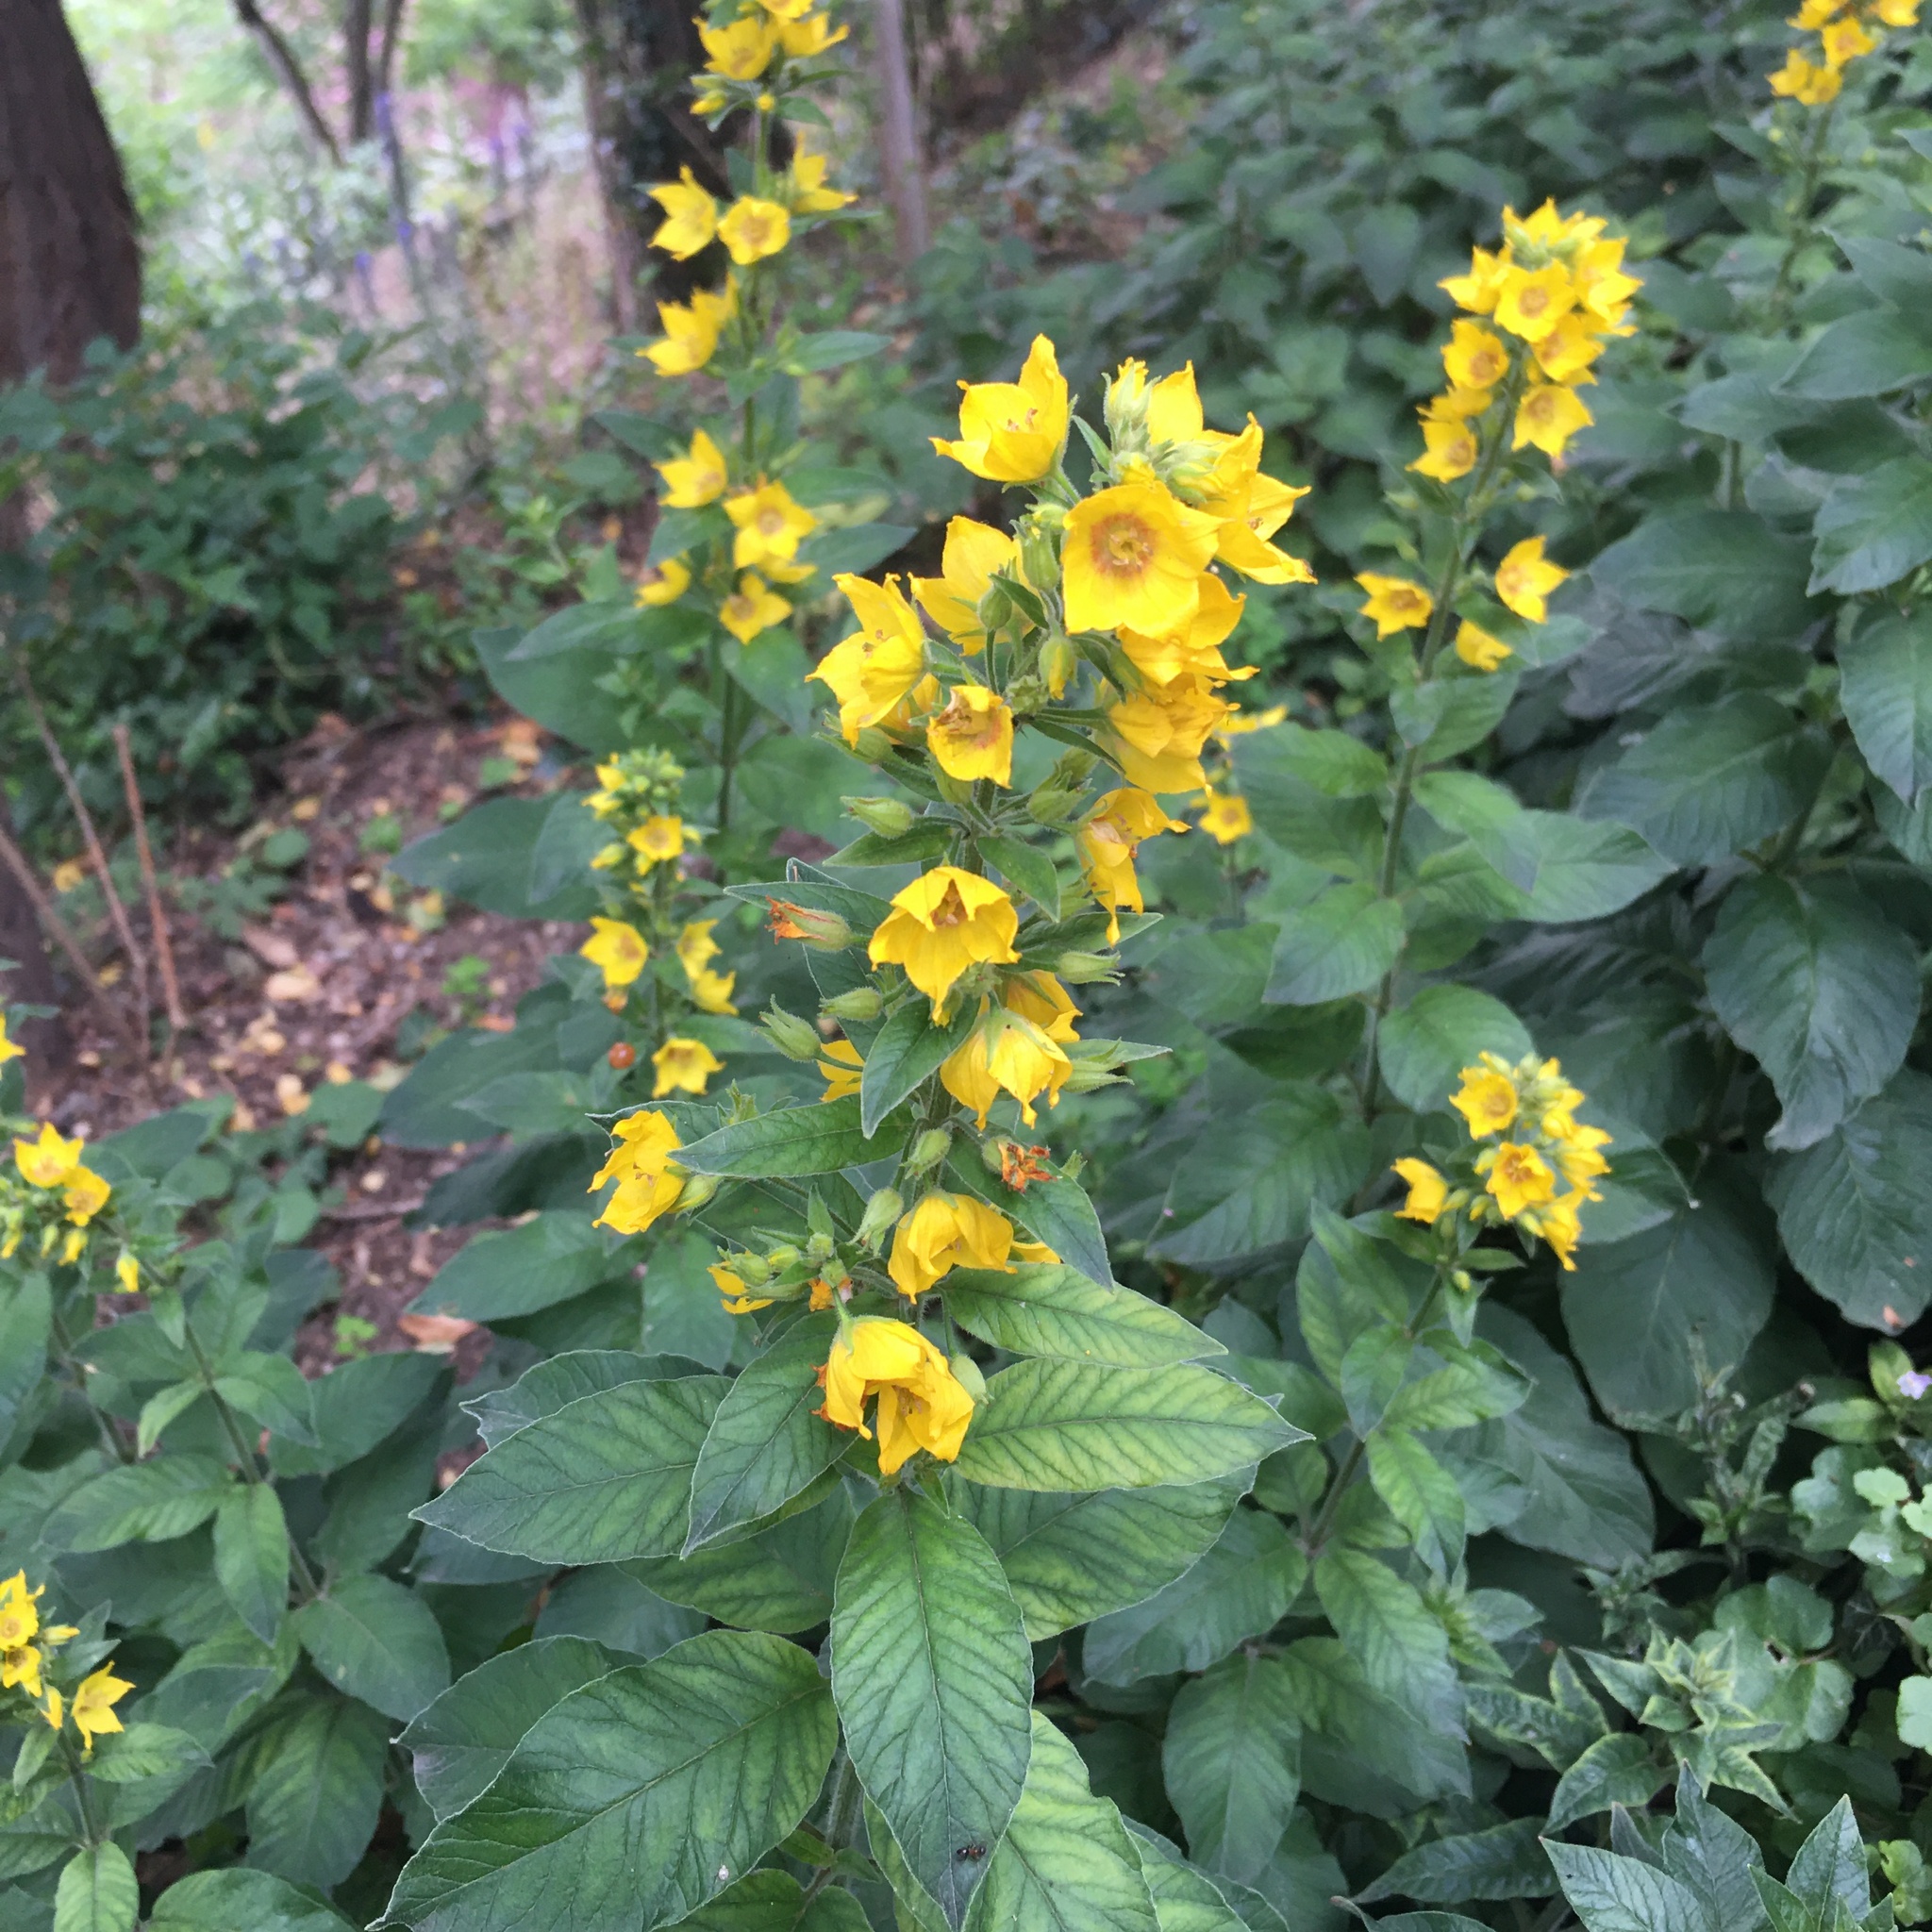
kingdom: Plantae
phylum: Tracheophyta
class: Magnoliopsida
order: Ericales
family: Primulaceae
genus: Lysimachia
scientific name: Lysimachia punctata
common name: Dotted loosestrife
